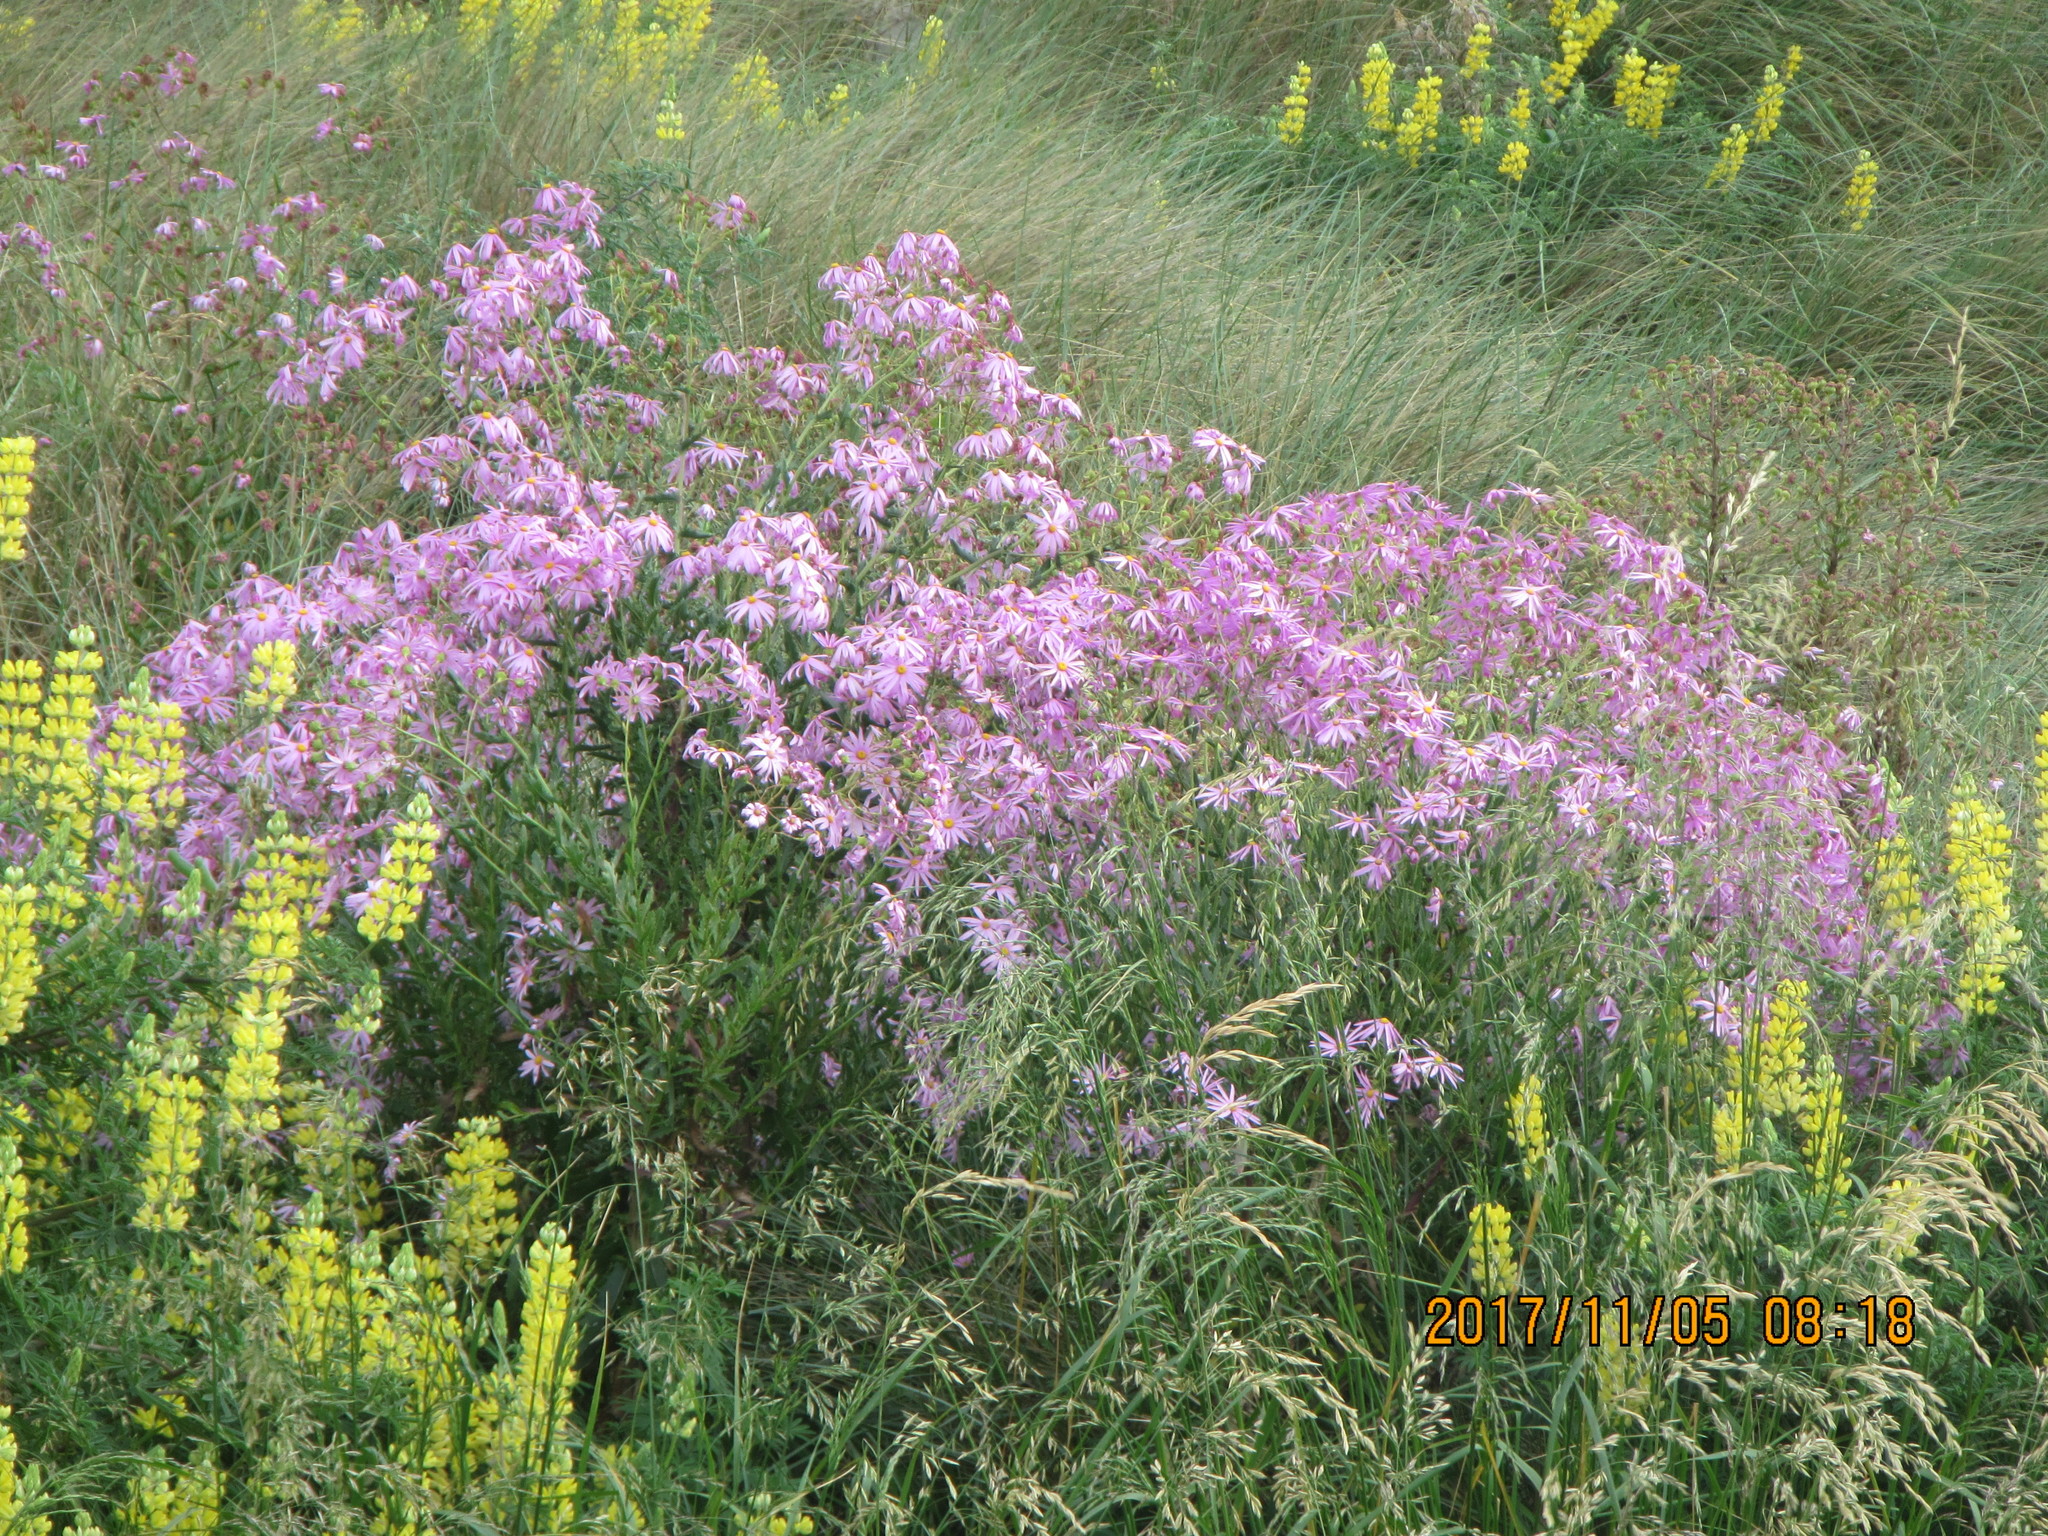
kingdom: Plantae
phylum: Tracheophyta
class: Magnoliopsida
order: Asterales
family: Asteraceae
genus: Senecio
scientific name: Senecio glastifolius
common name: Woad-leaved ragwort
